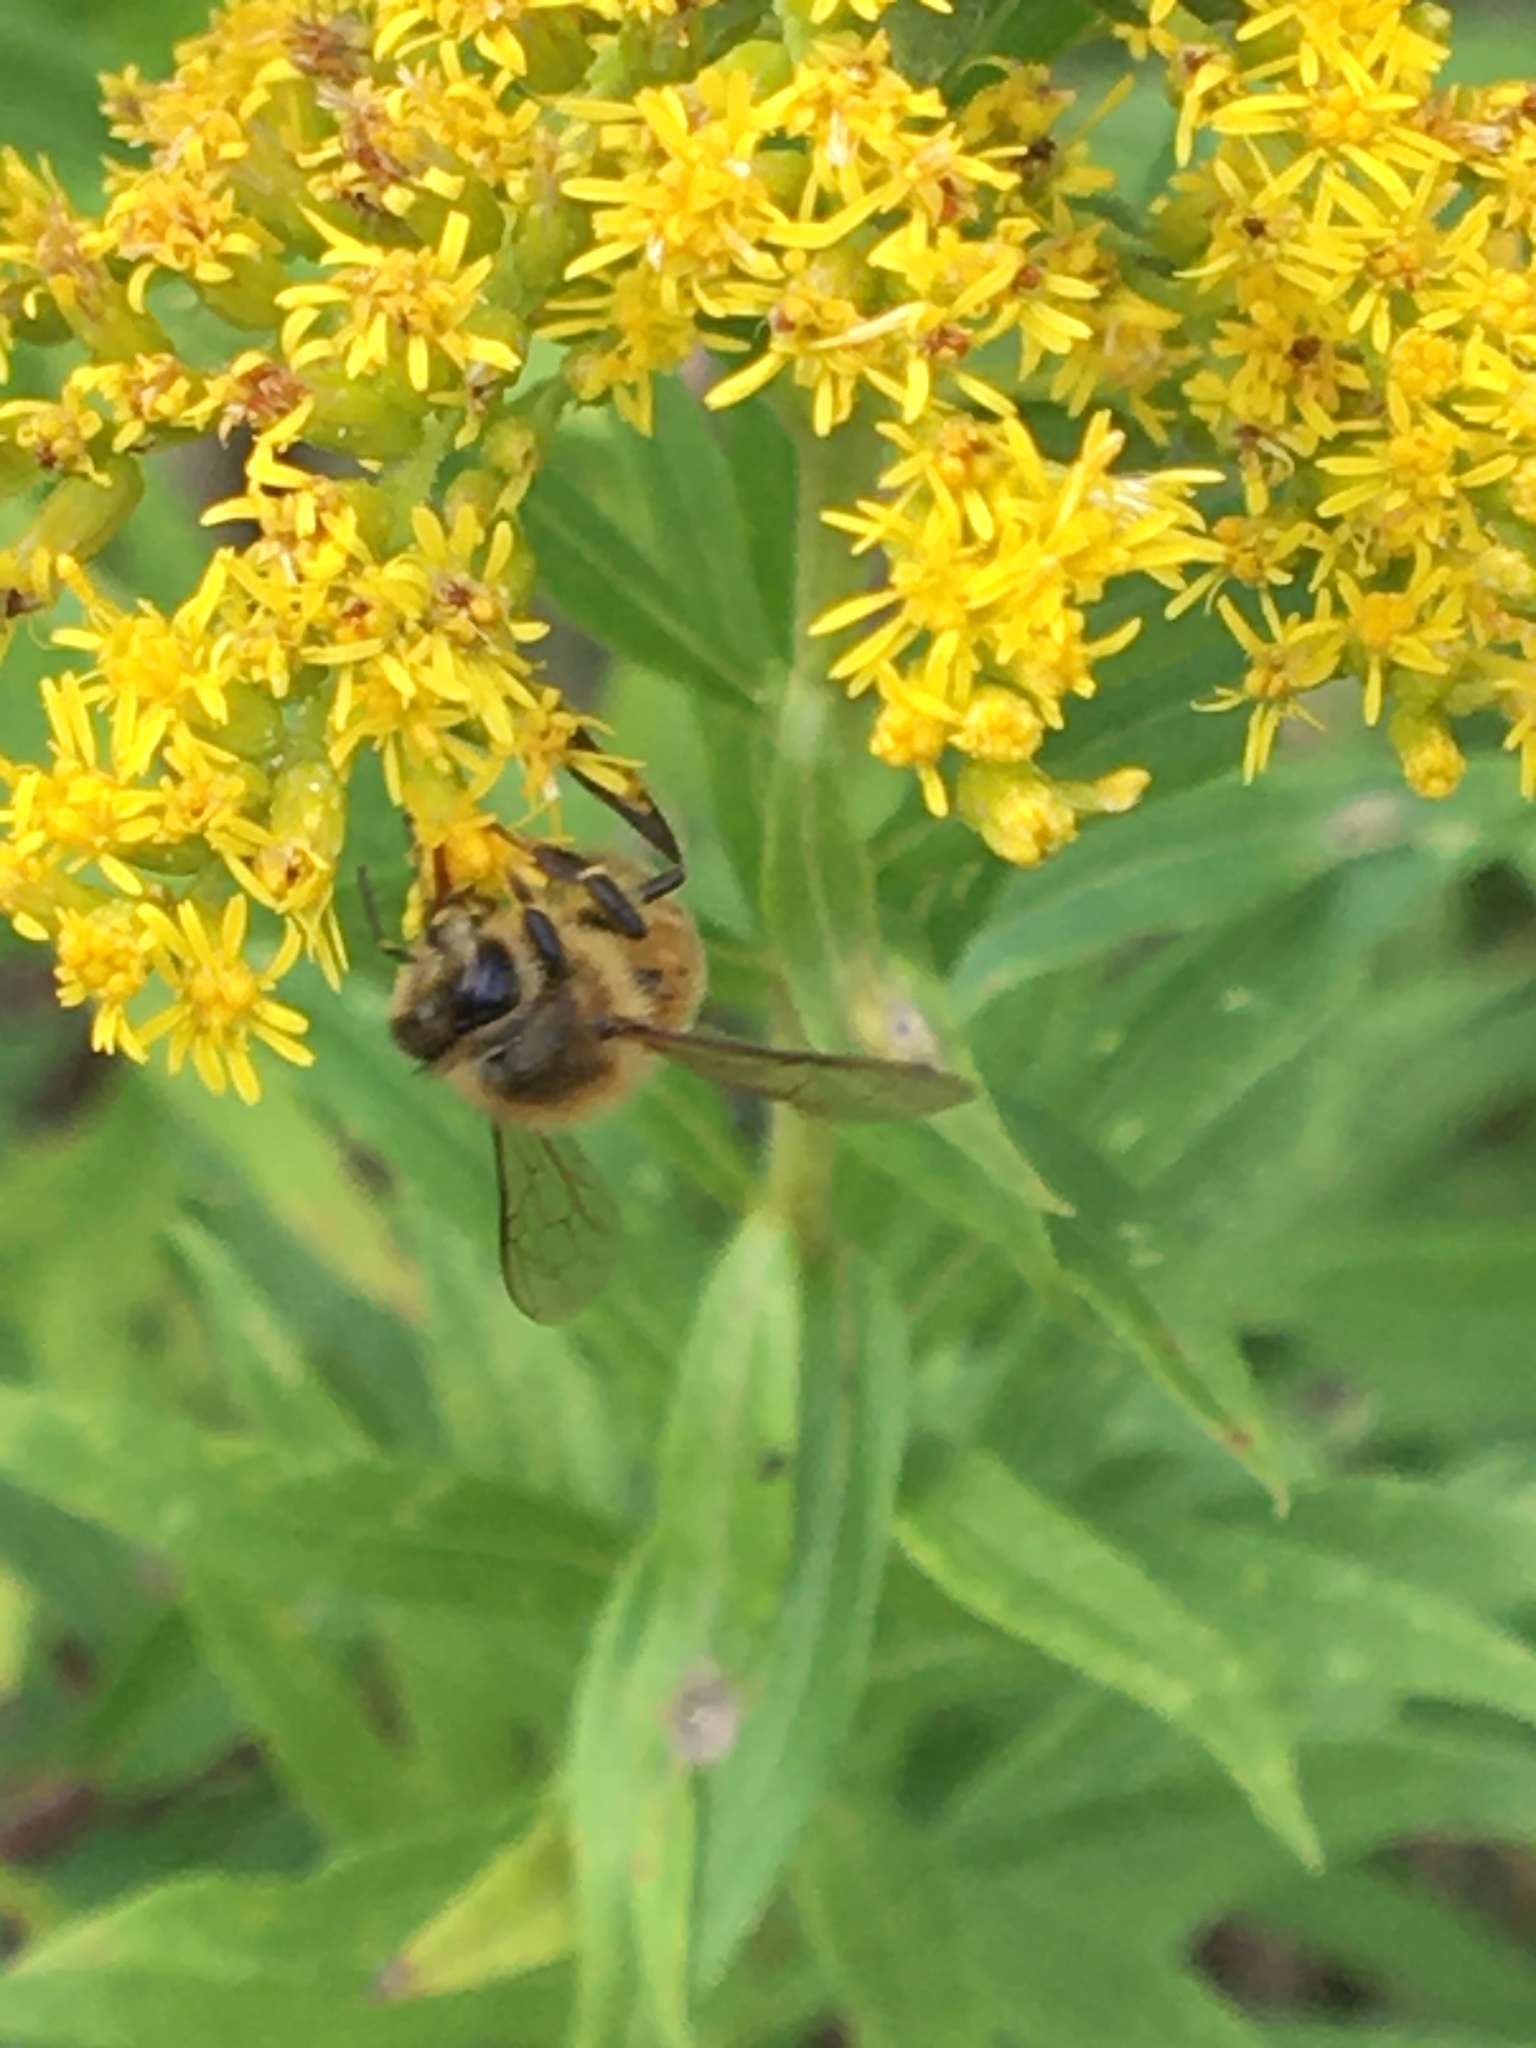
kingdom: Animalia
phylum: Arthropoda
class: Insecta
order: Hymenoptera
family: Apidae
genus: Apis
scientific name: Apis mellifera
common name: Honey bee
